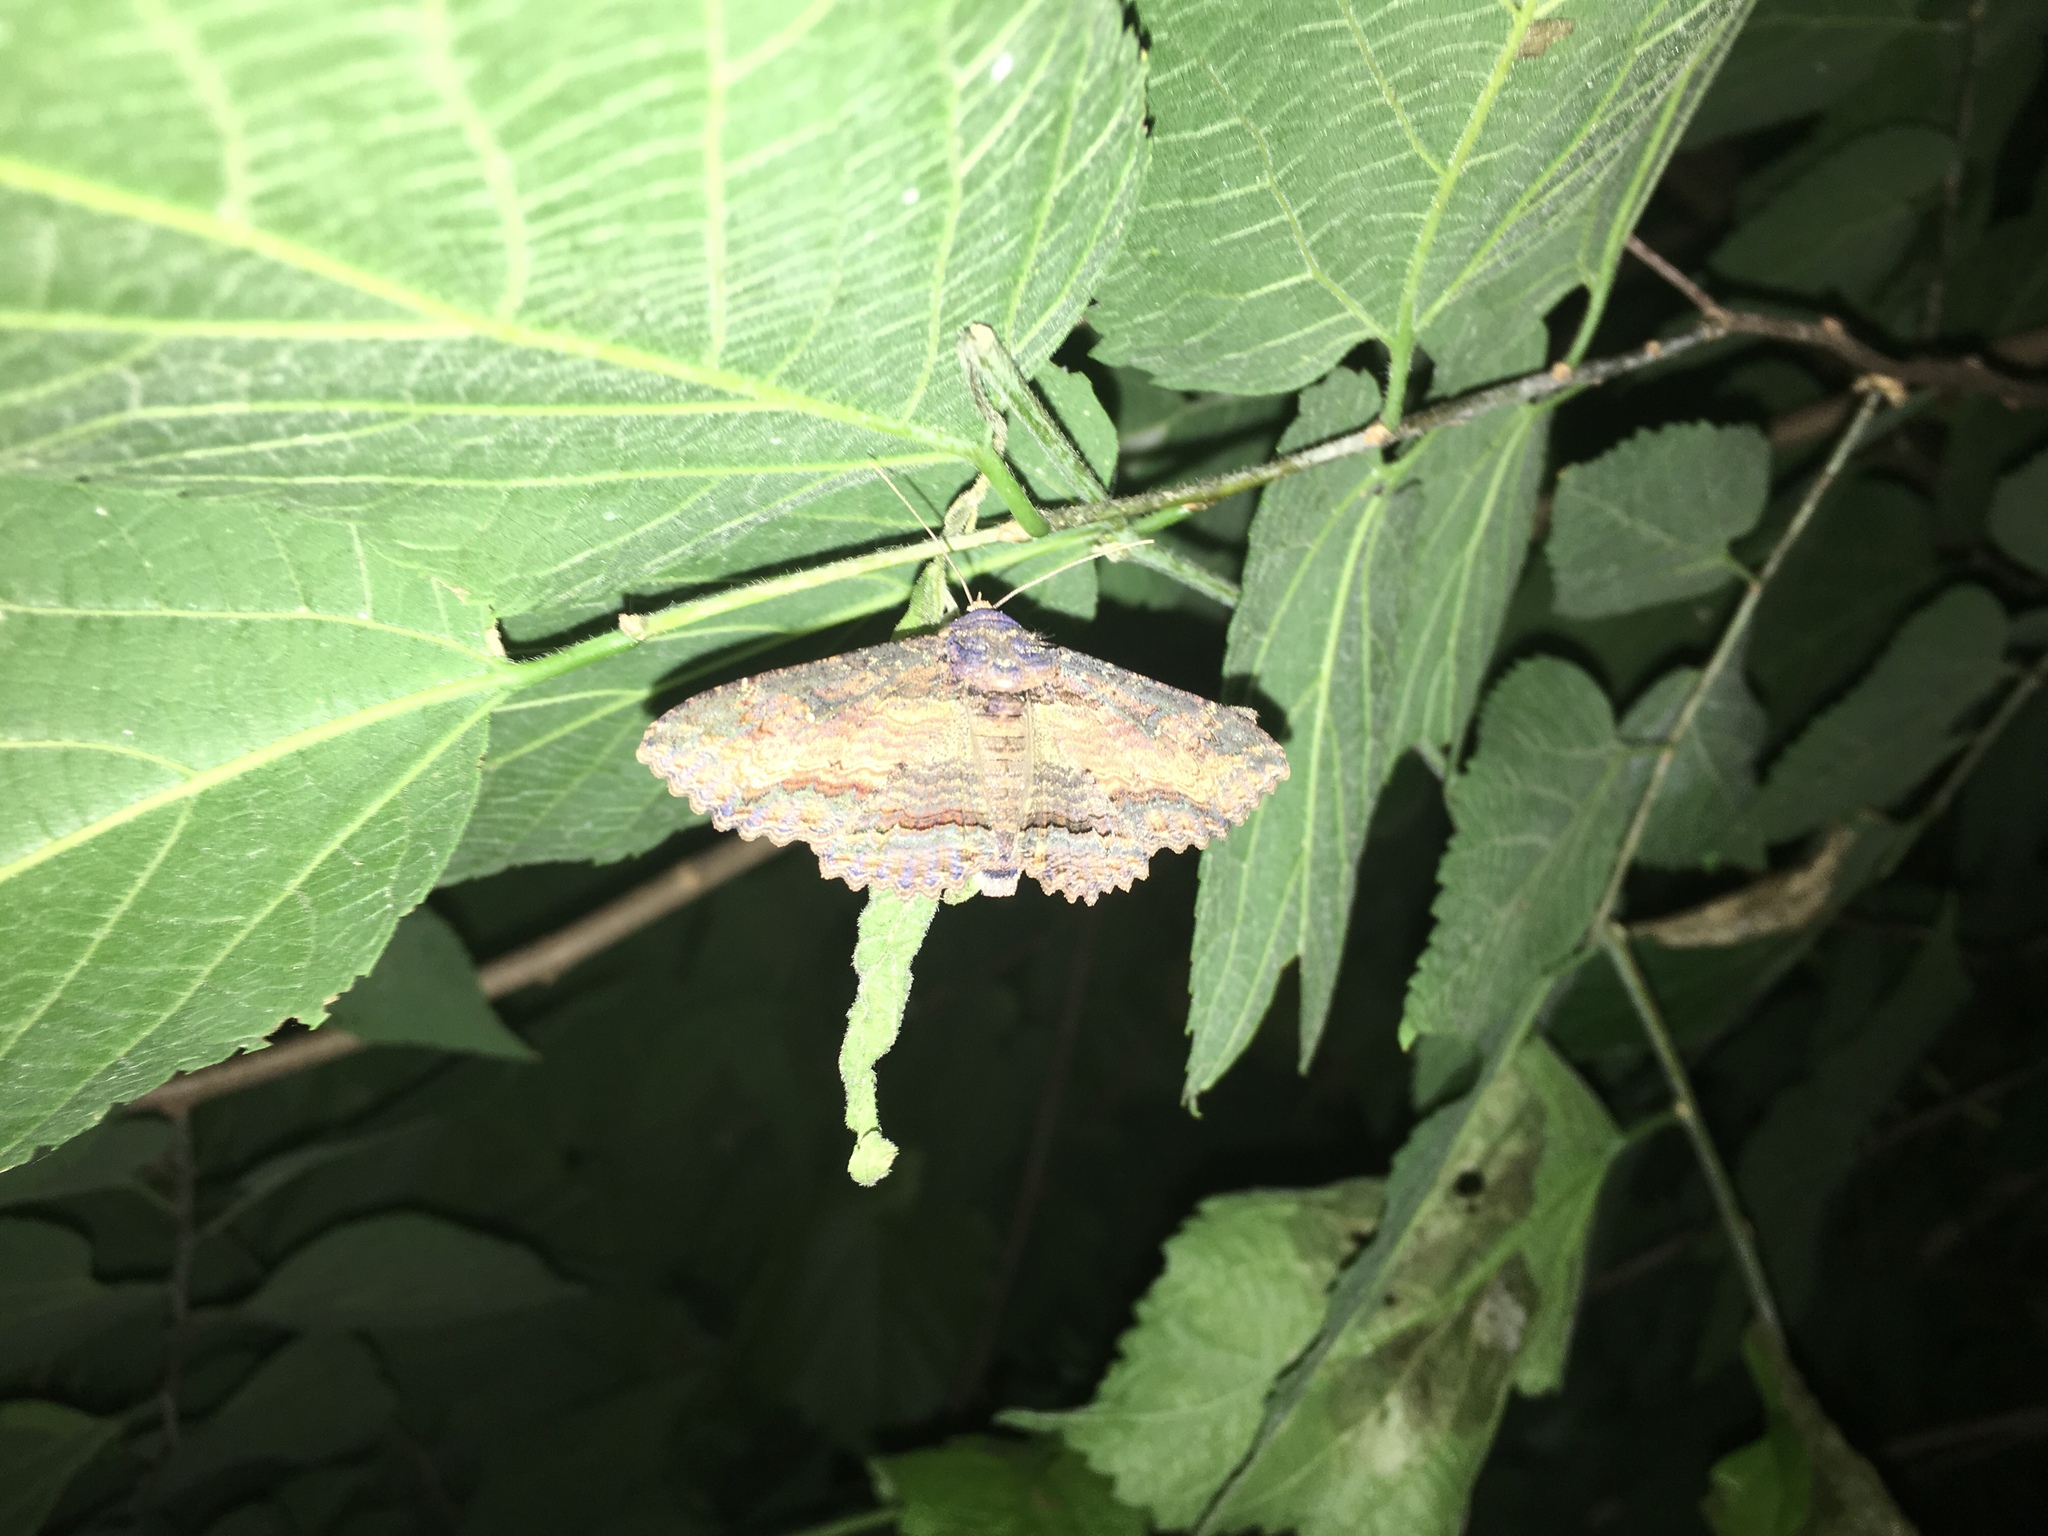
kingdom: Animalia
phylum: Arthropoda
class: Insecta
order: Lepidoptera
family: Erebidae
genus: Zale
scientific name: Zale lunata
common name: Lunate zale moth
